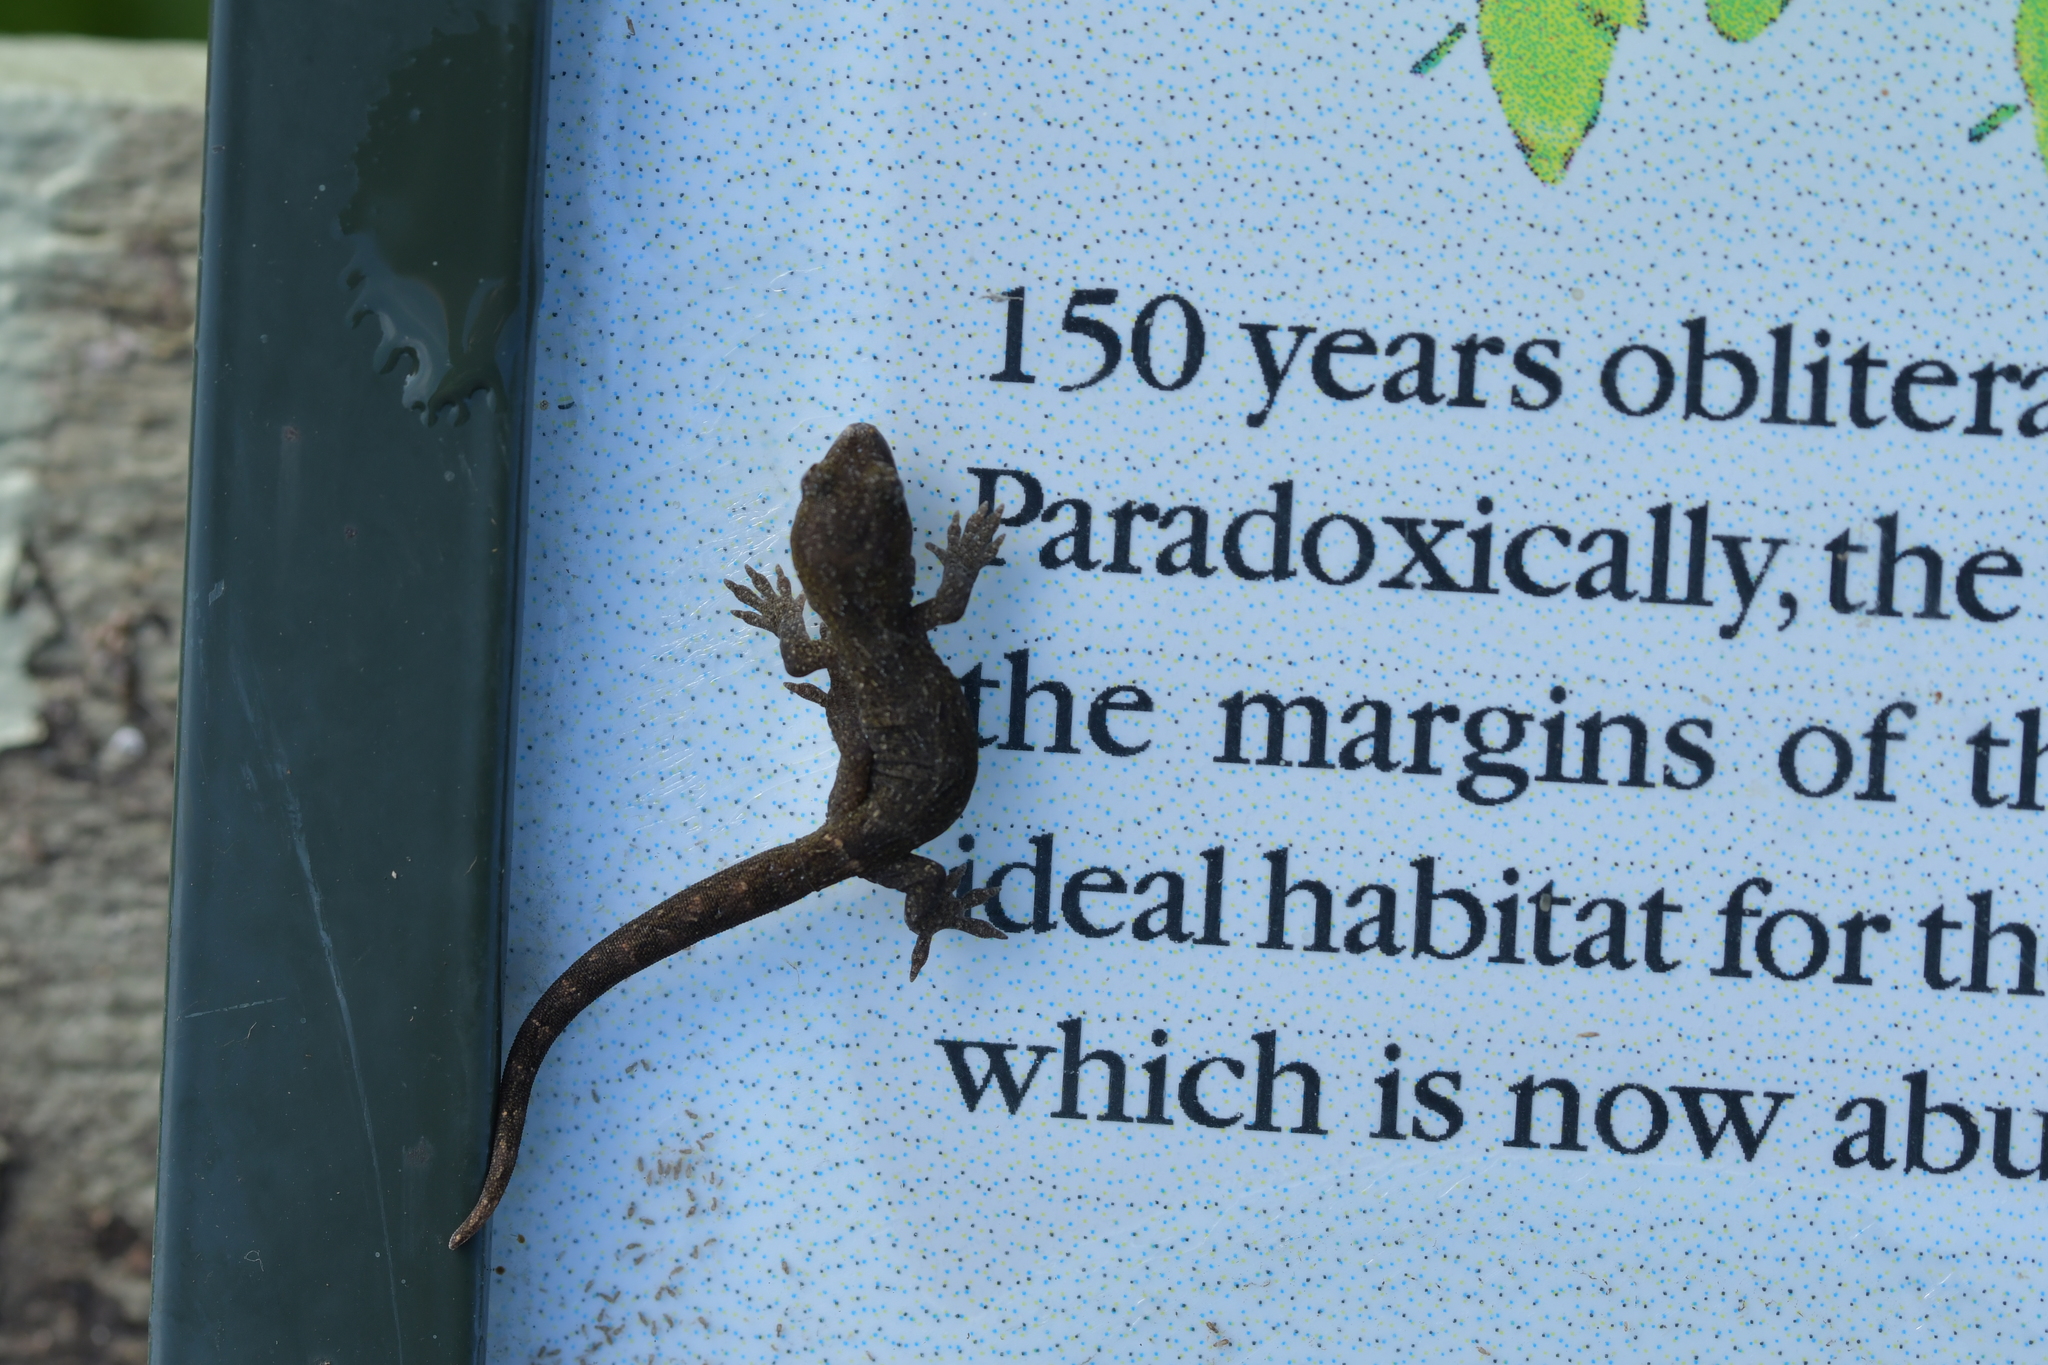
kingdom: Animalia
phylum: Chordata
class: Squamata
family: Diplodactylidae
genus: Woodworthia
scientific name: Woodworthia maculata
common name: Raukawa gecko
